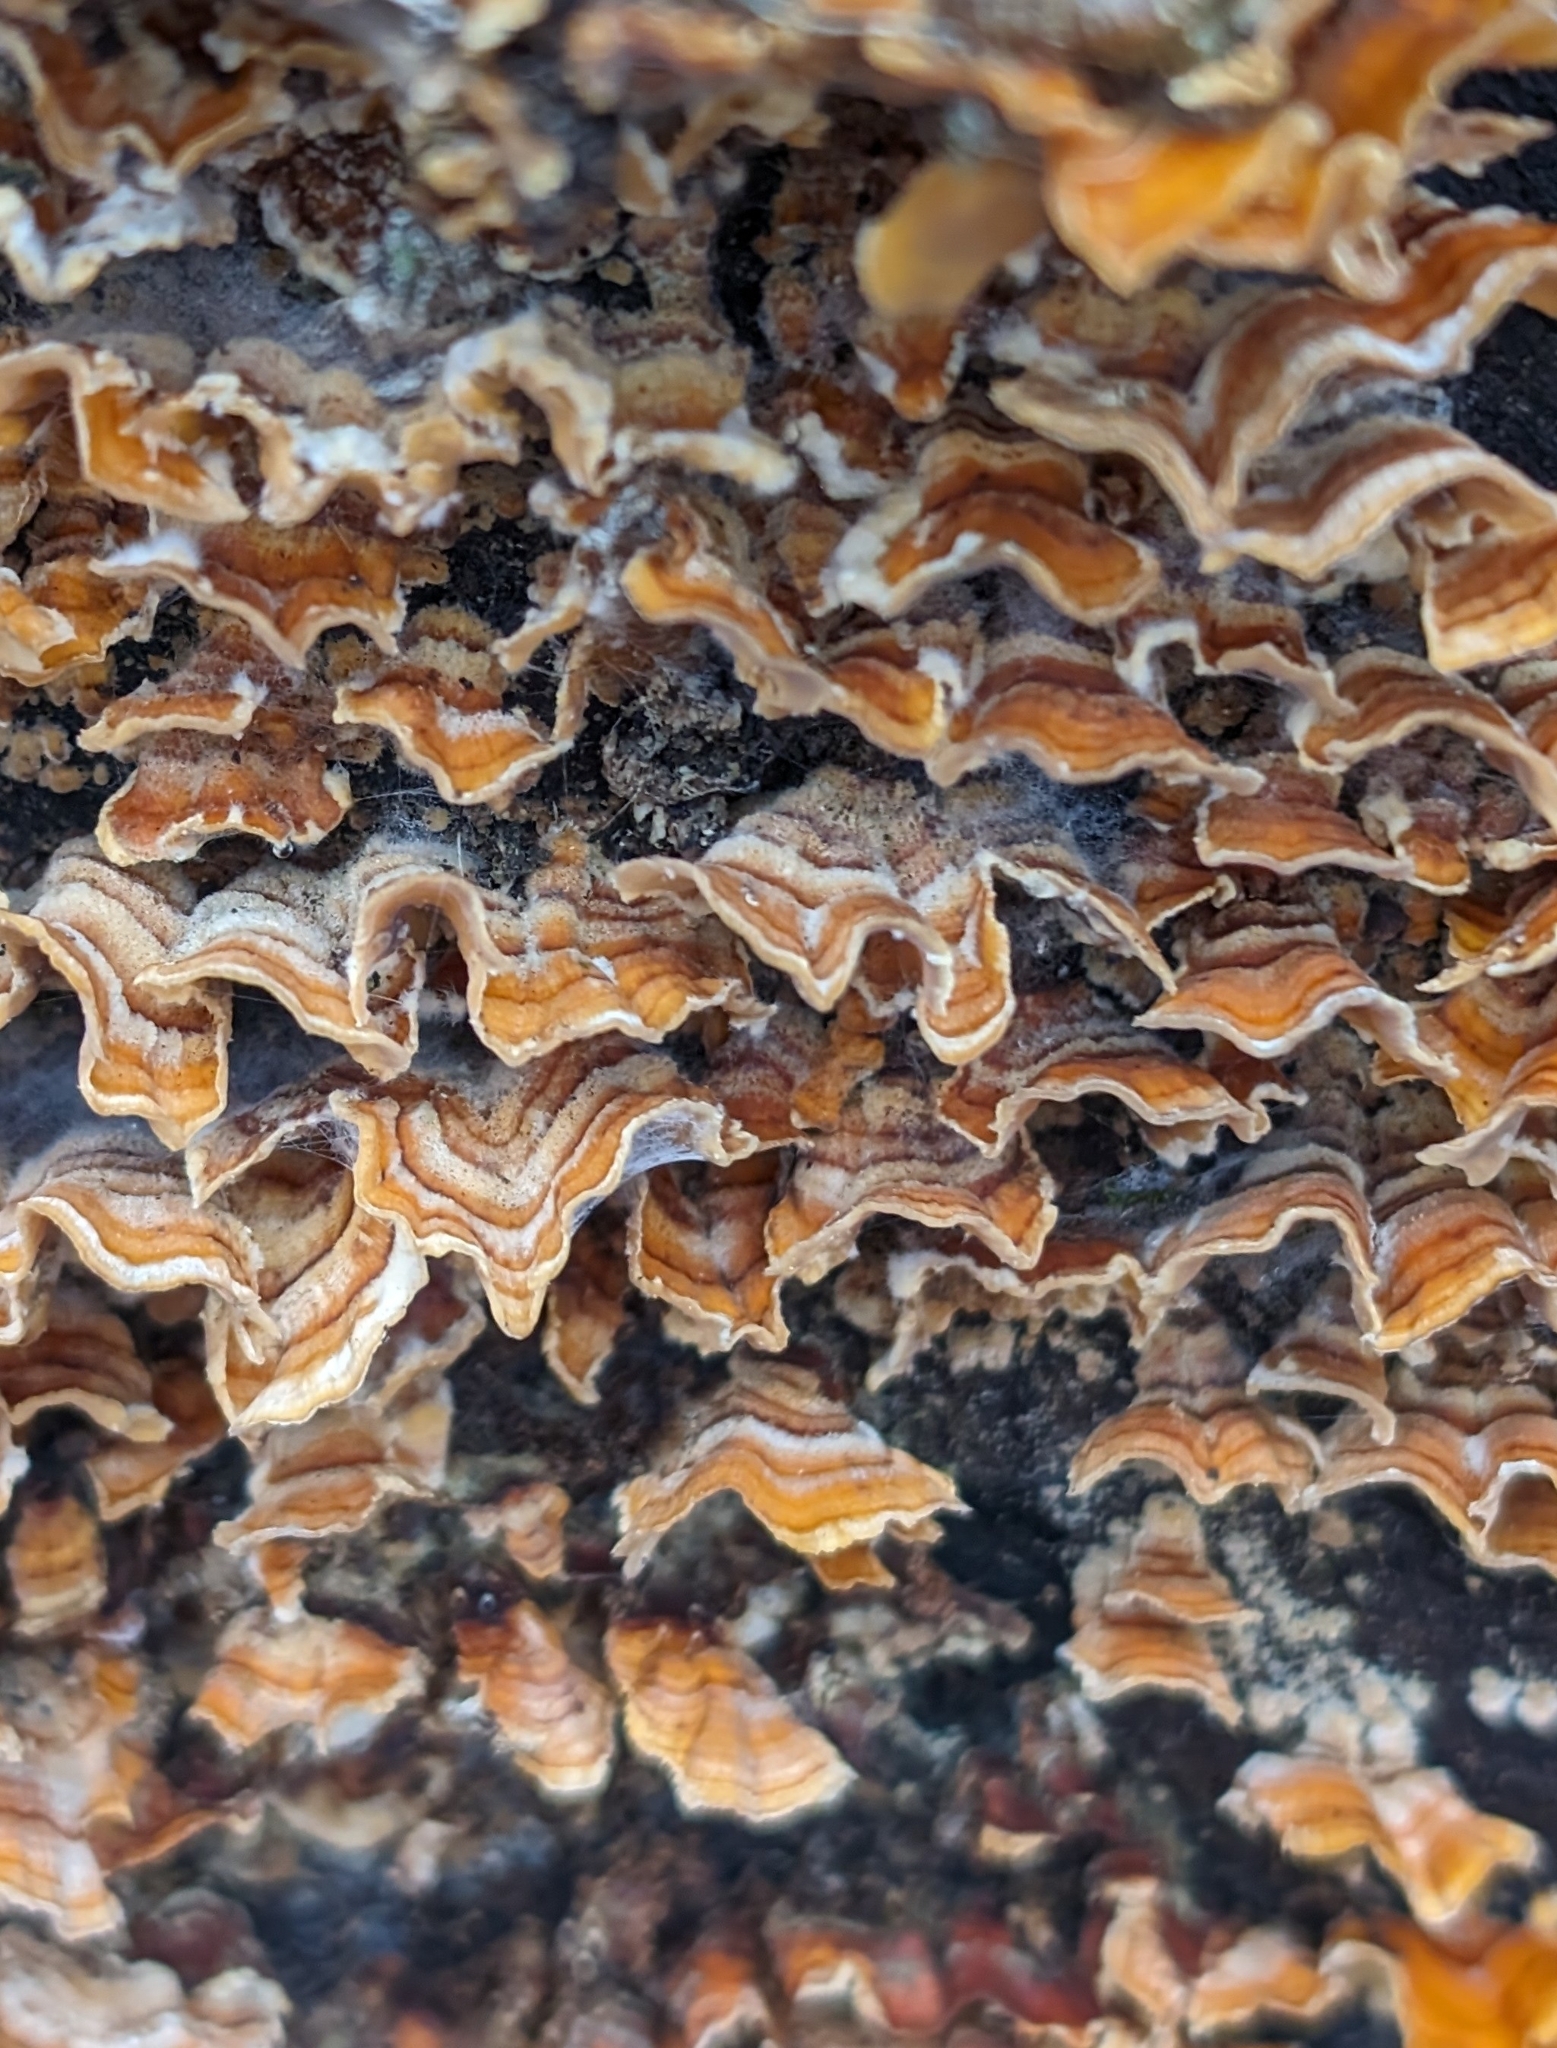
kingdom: Fungi
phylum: Basidiomycota
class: Agaricomycetes
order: Russulales
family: Stereaceae
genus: Stereum
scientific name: Stereum complicatum
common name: Crowded parchment
